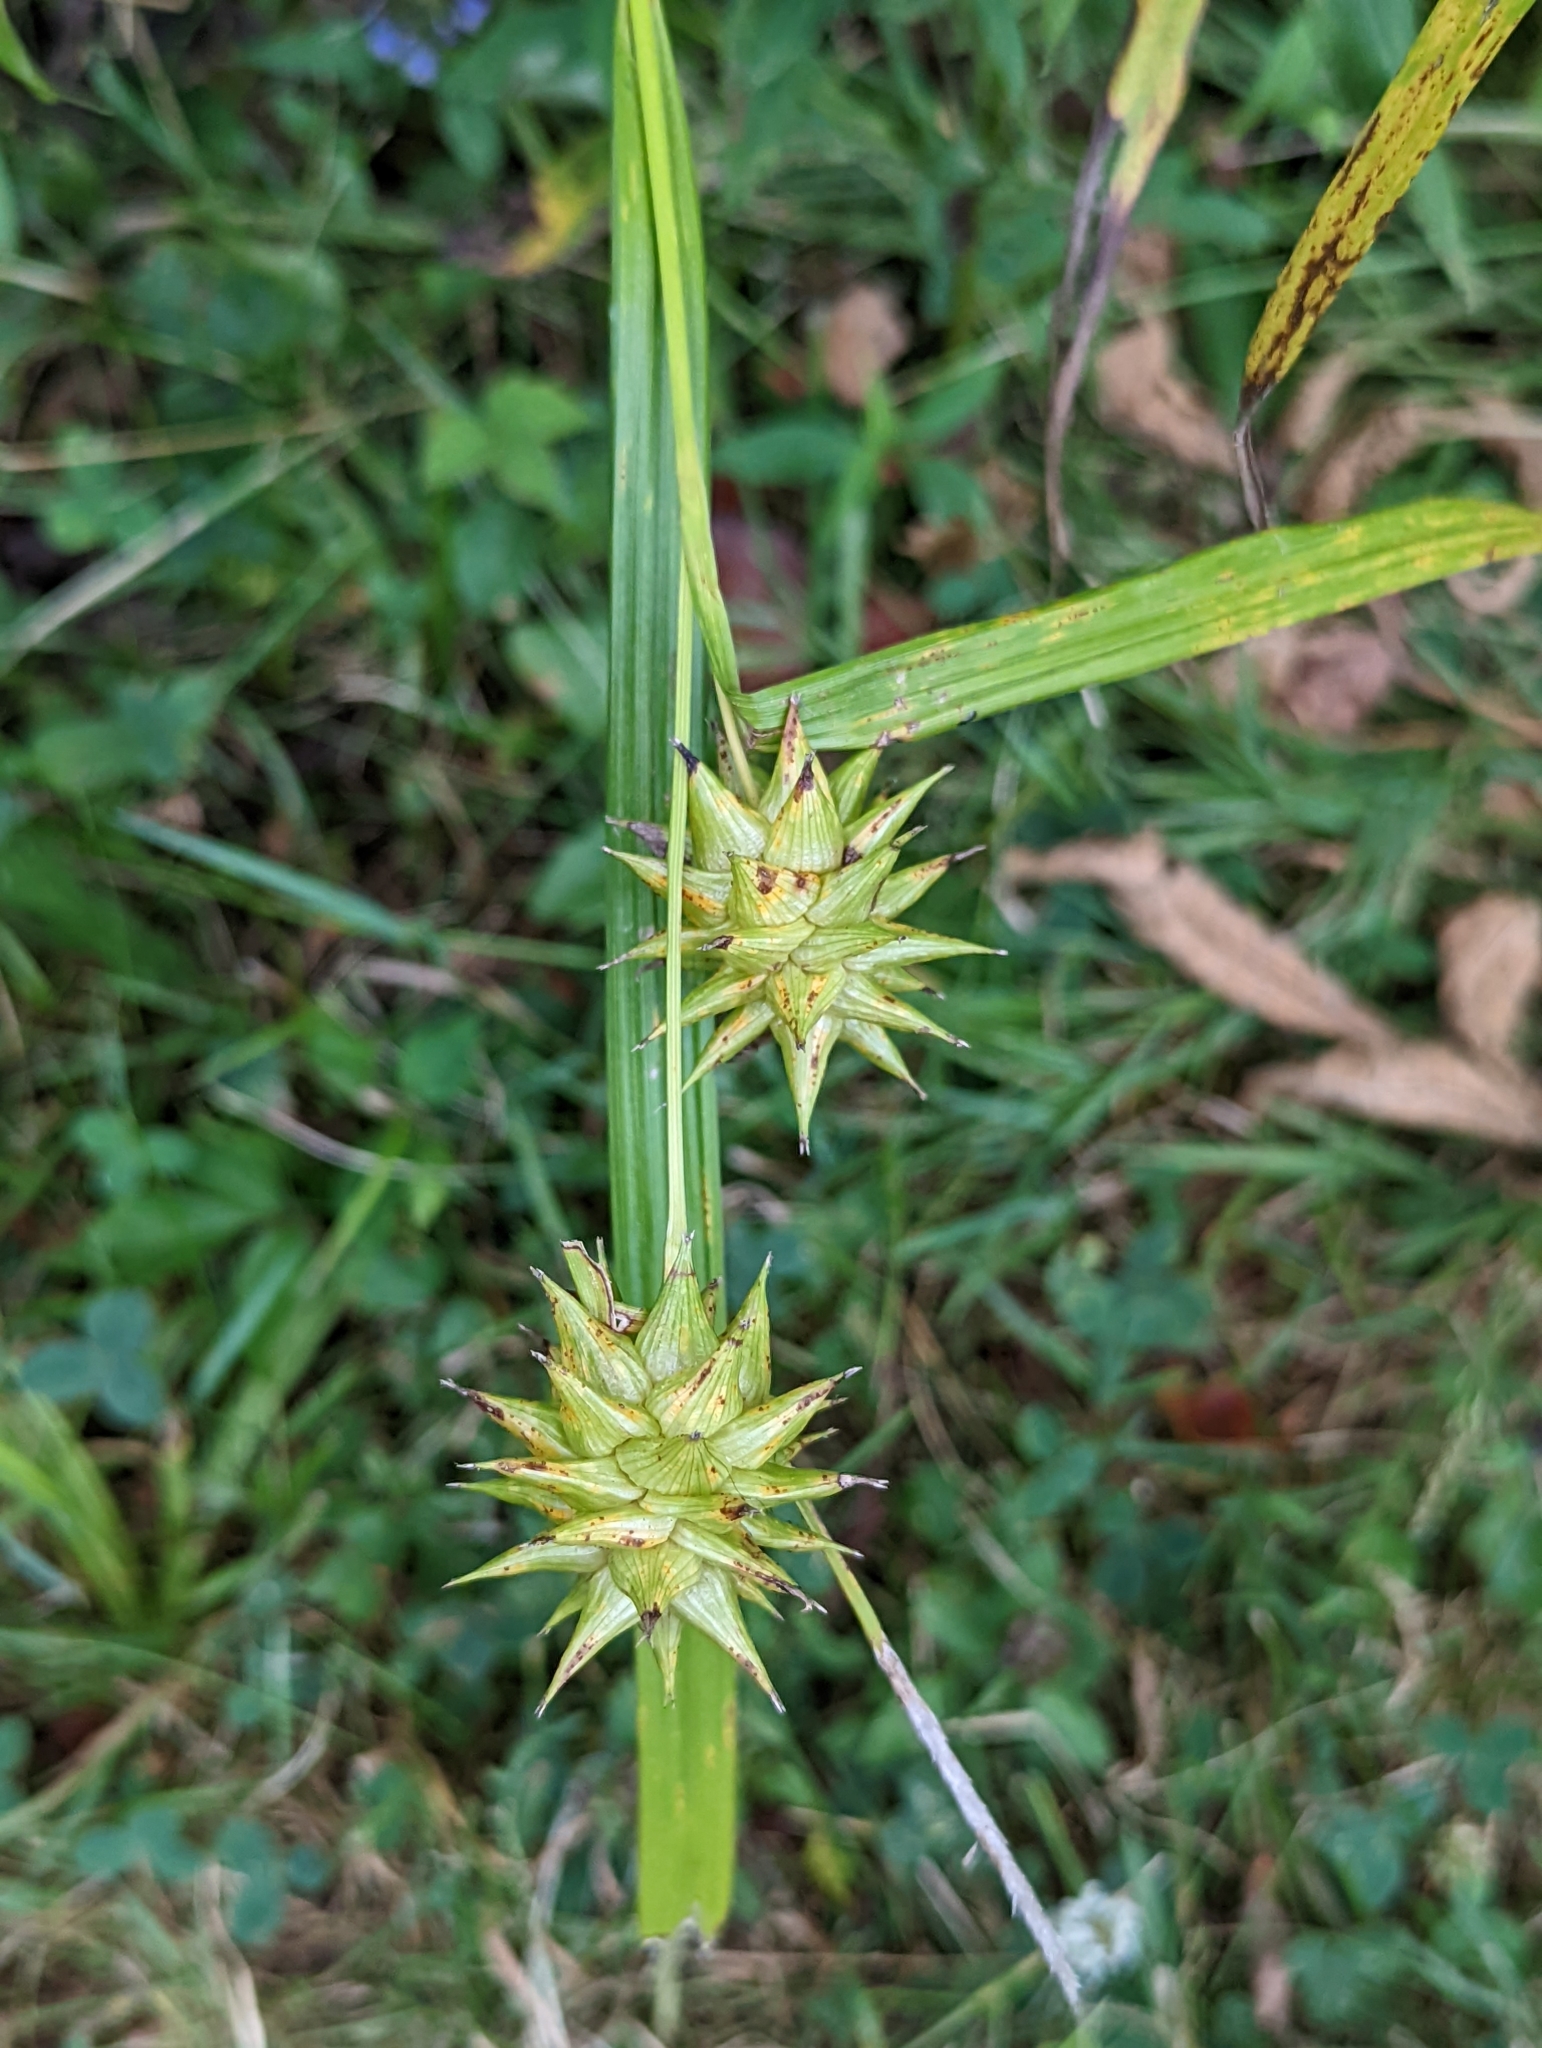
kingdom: Plantae
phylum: Tracheophyta
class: Liliopsida
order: Poales
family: Cyperaceae
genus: Carex
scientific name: Carex grayi
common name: Asa gray's sedge
